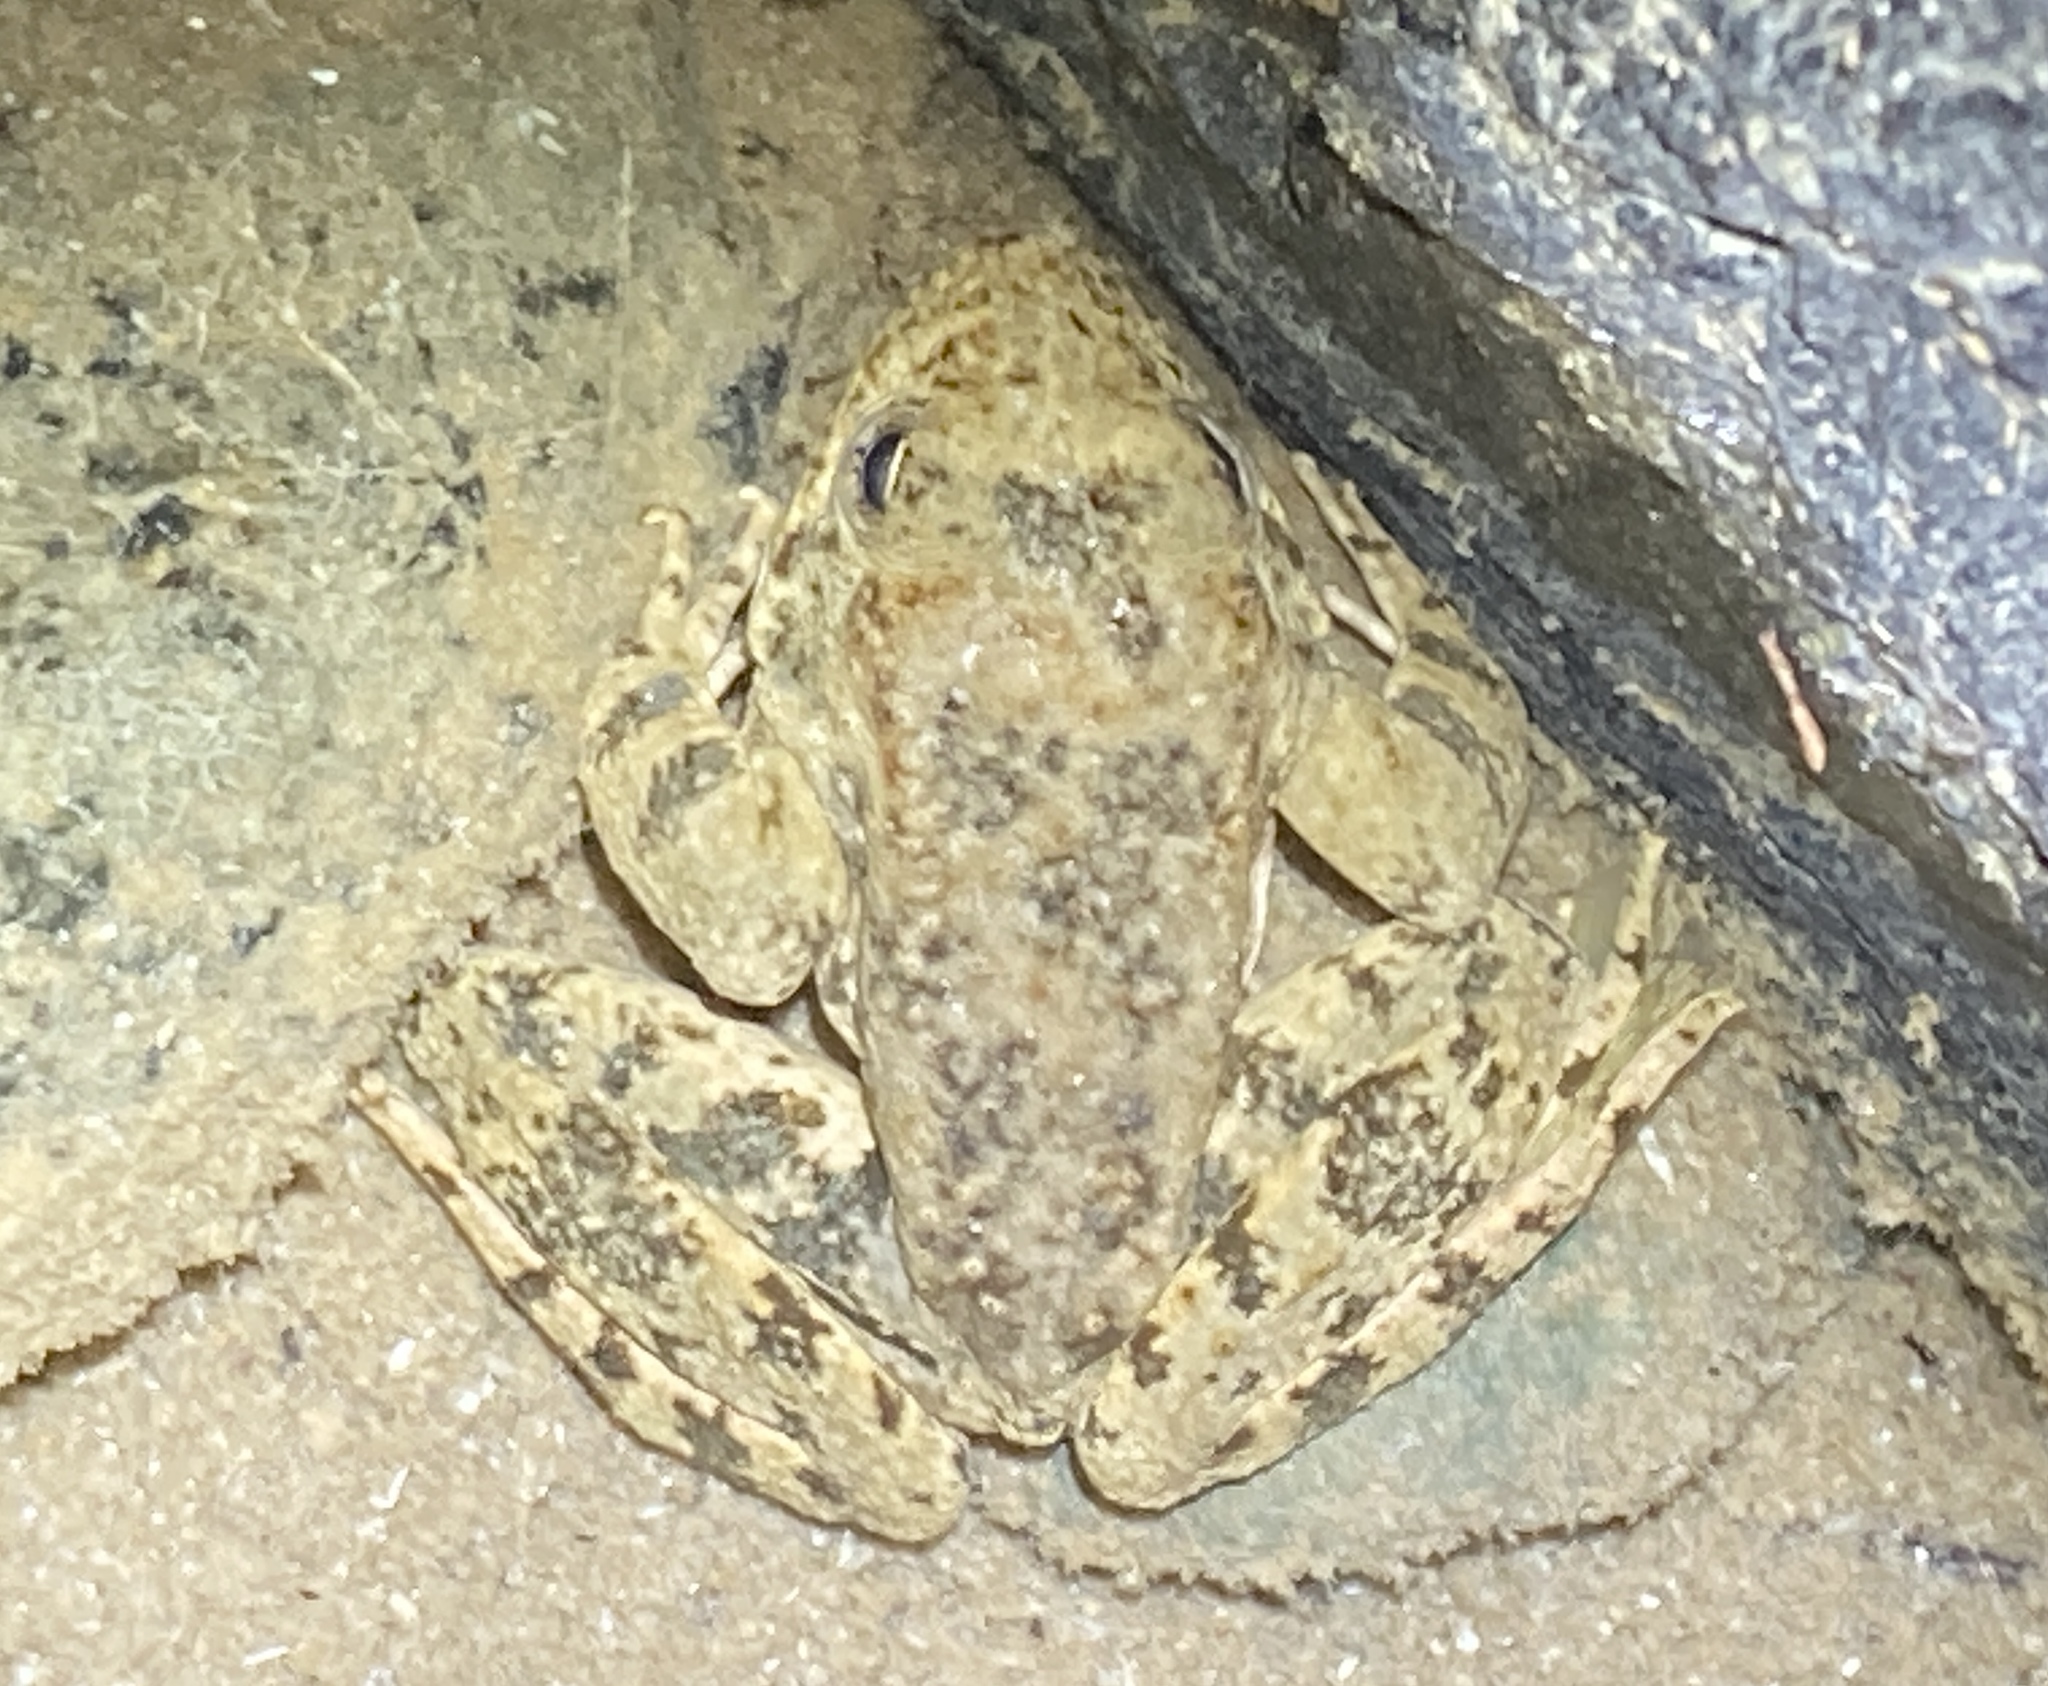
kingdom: Animalia
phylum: Chordata
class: Amphibia
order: Anura
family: Ranidae
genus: Rana
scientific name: Rana boylii
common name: Foothill yellow-legged frog
